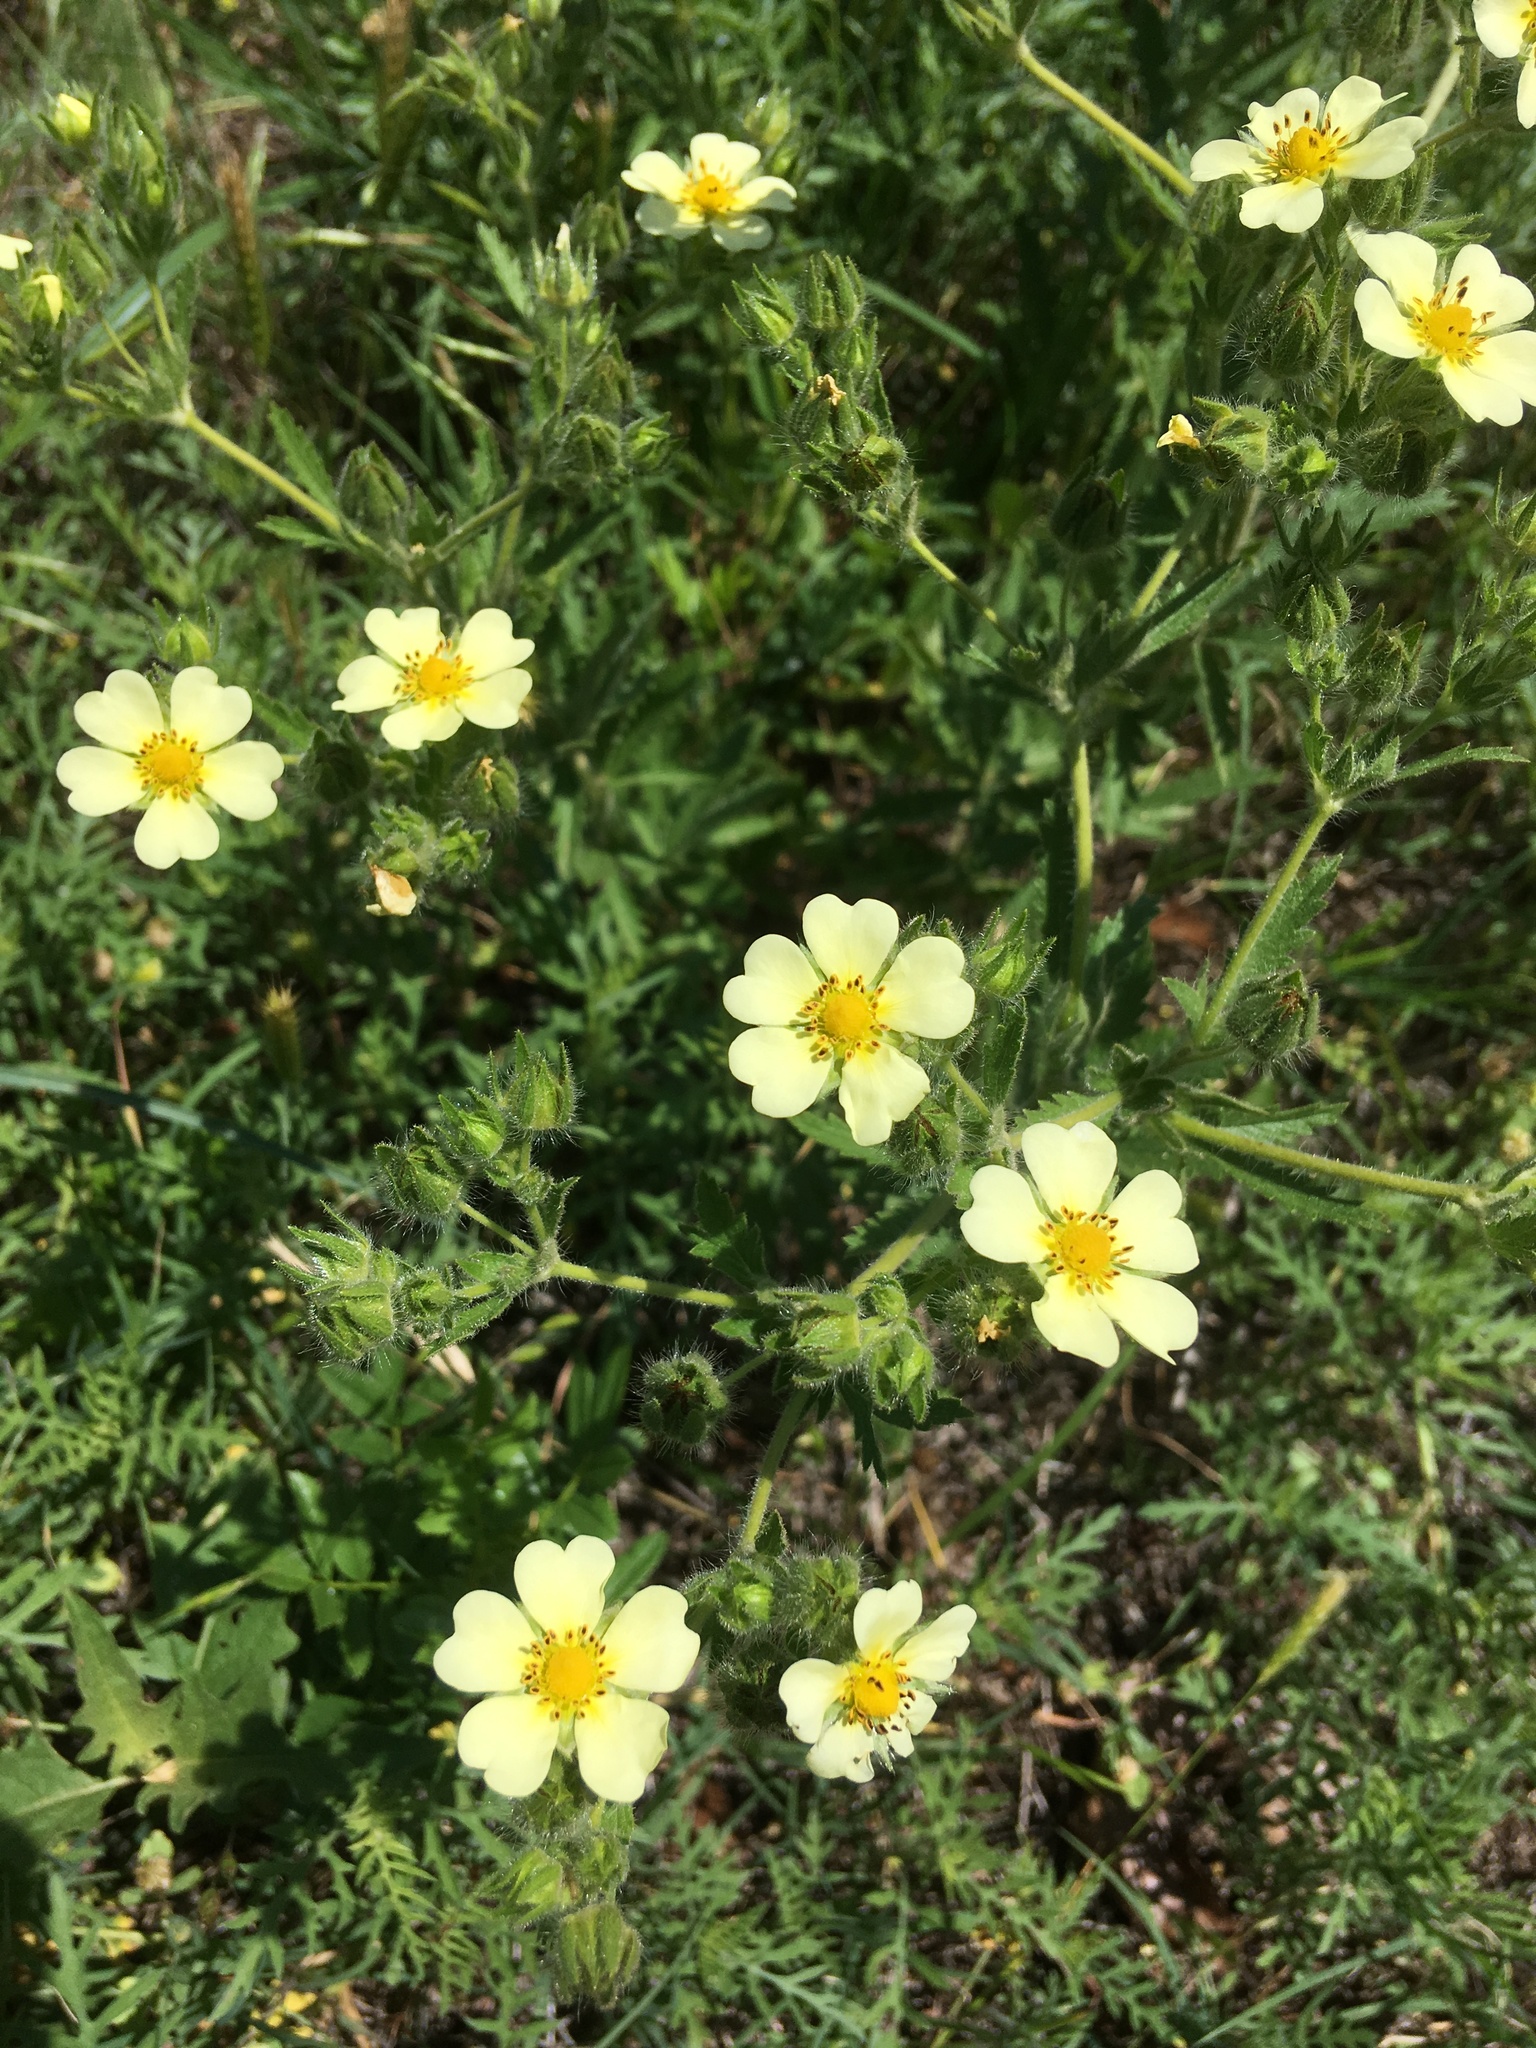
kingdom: Plantae
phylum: Tracheophyta
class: Magnoliopsida
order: Rosales
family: Rosaceae
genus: Potentilla
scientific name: Potentilla recta
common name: Sulphur cinquefoil
